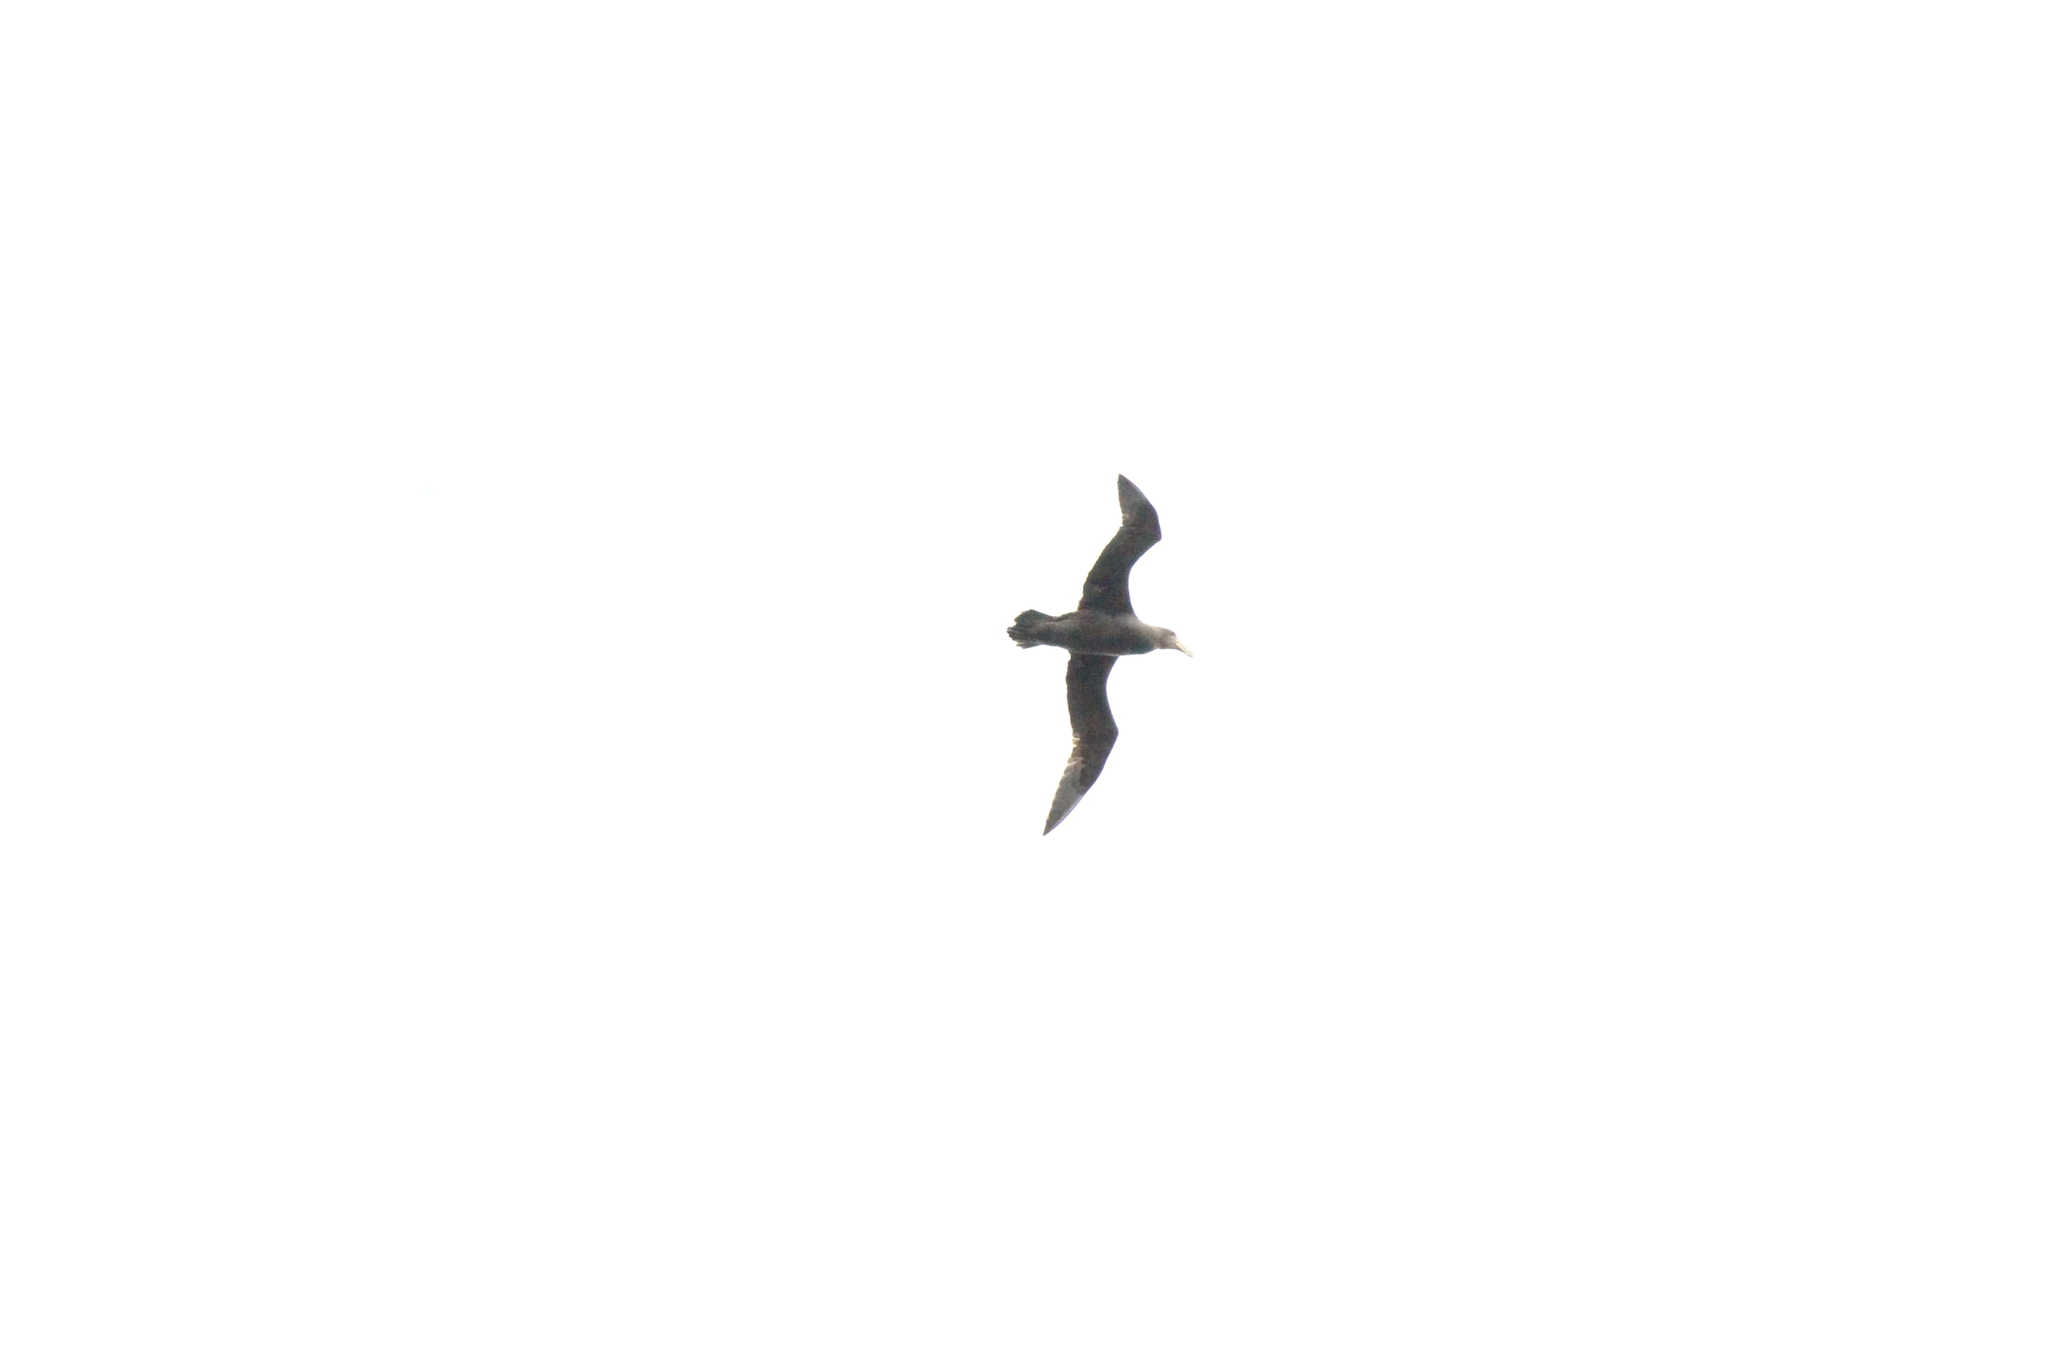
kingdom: Animalia
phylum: Chordata
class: Aves
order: Procellariiformes
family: Procellariidae
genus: Macronectes
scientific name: Macronectes giganteus
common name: Southern giant petrel
